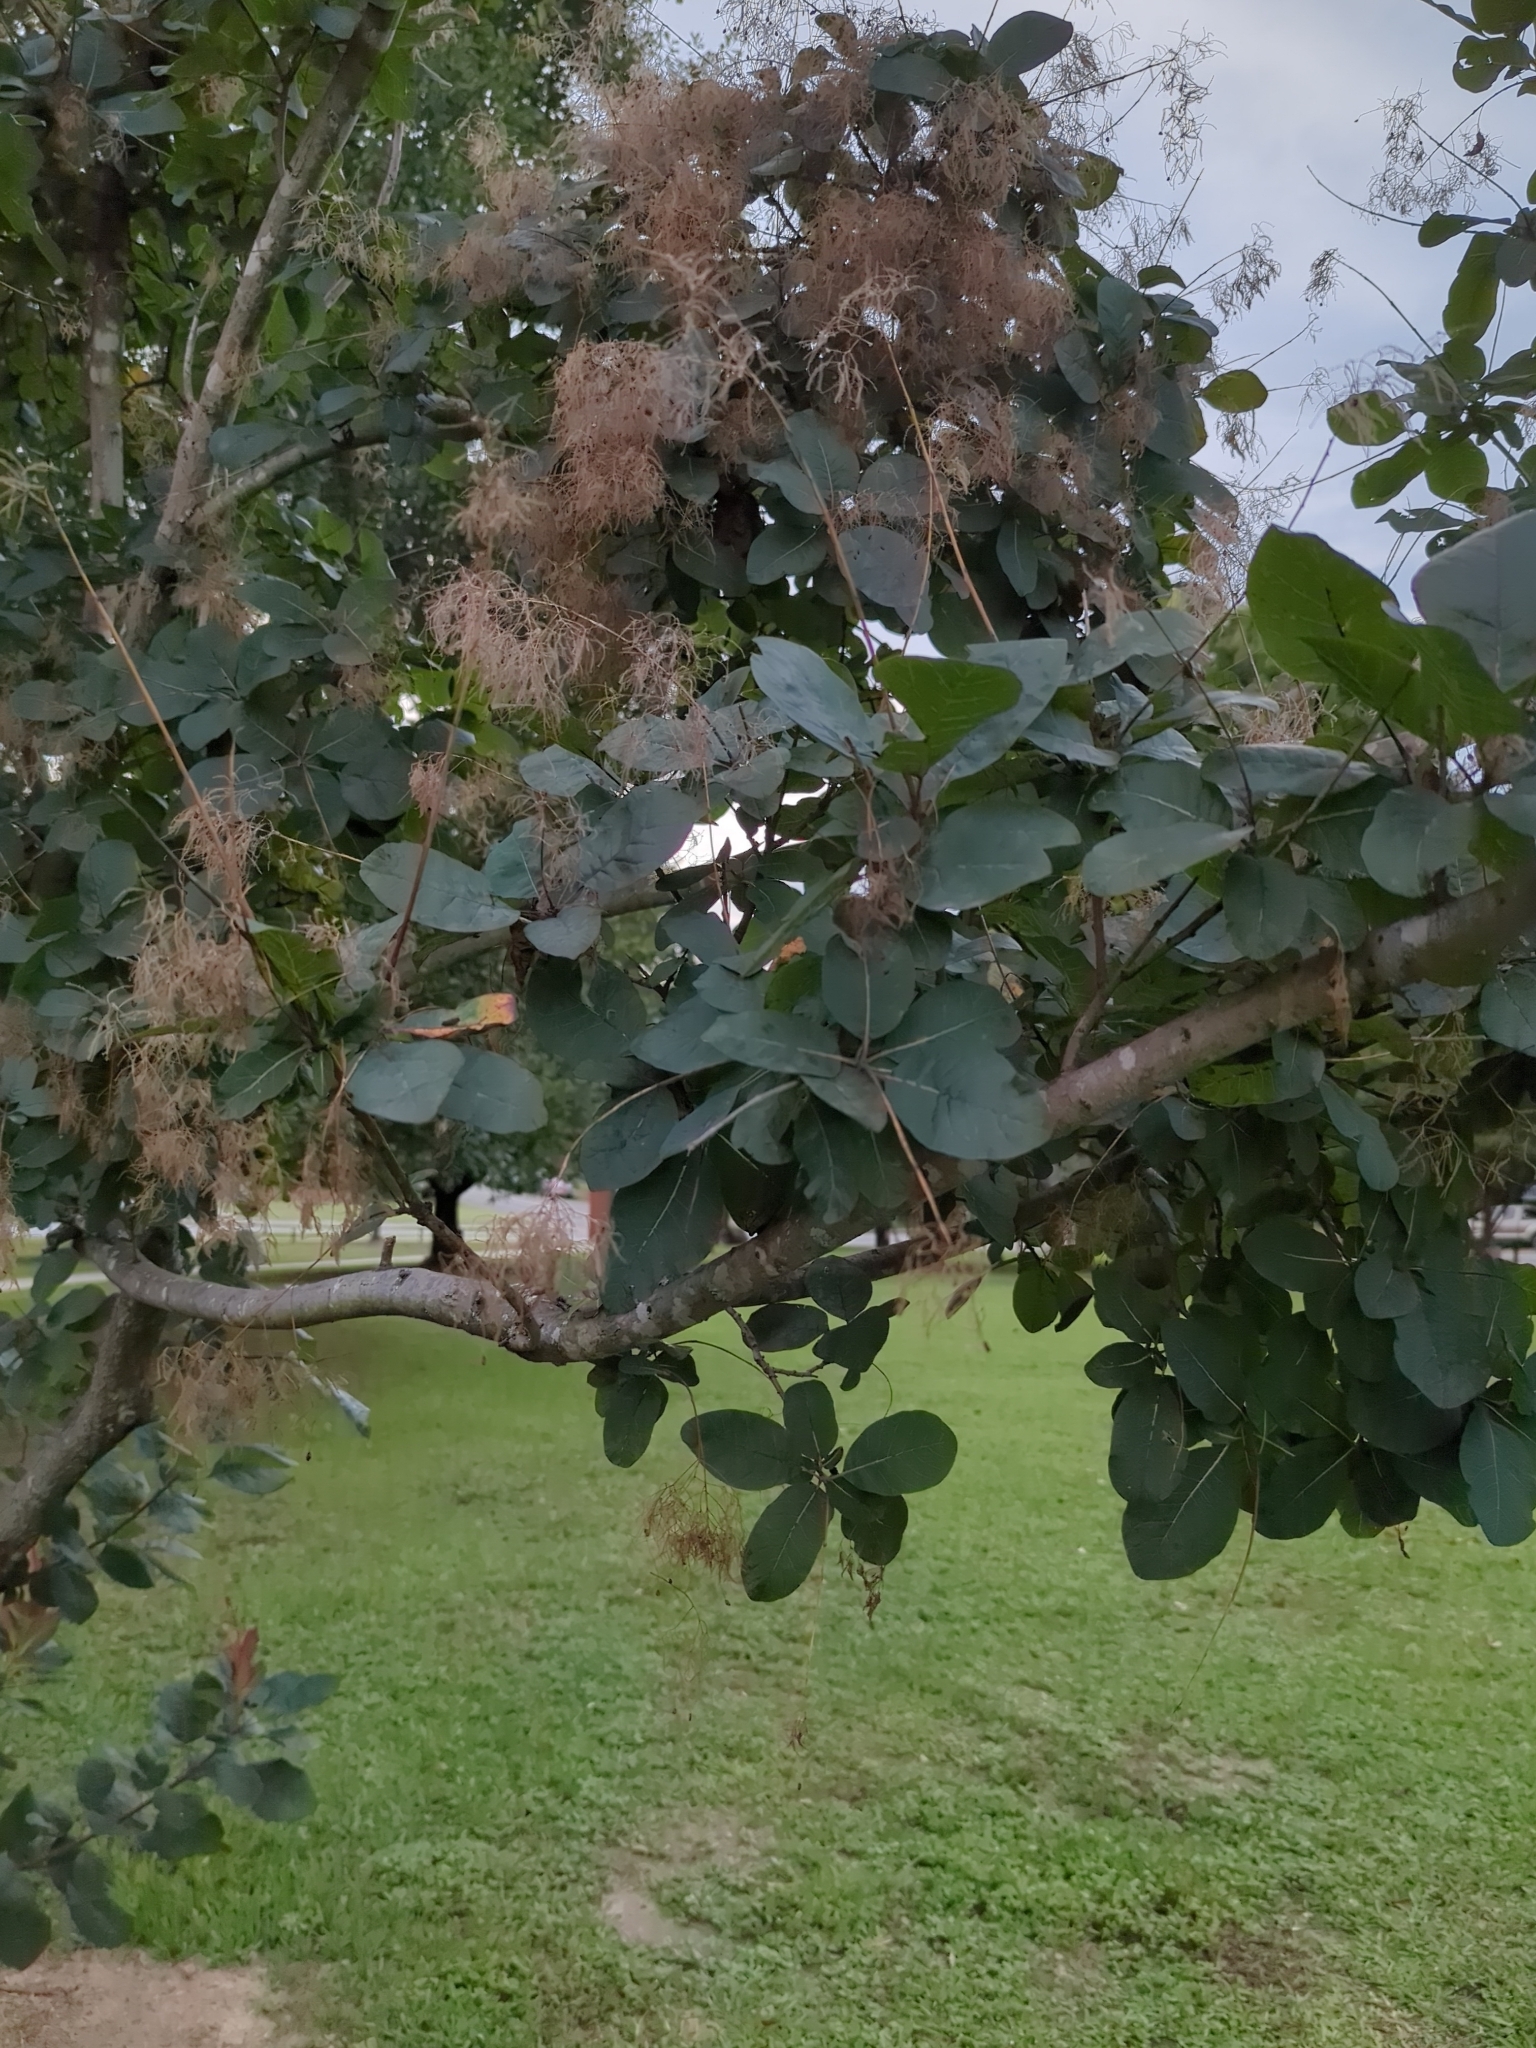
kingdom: Plantae
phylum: Tracheophyta
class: Magnoliopsida
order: Sapindales
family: Anacardiaceae
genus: Cotinus
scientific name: Cotinus coggygria
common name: Smoke-tree
